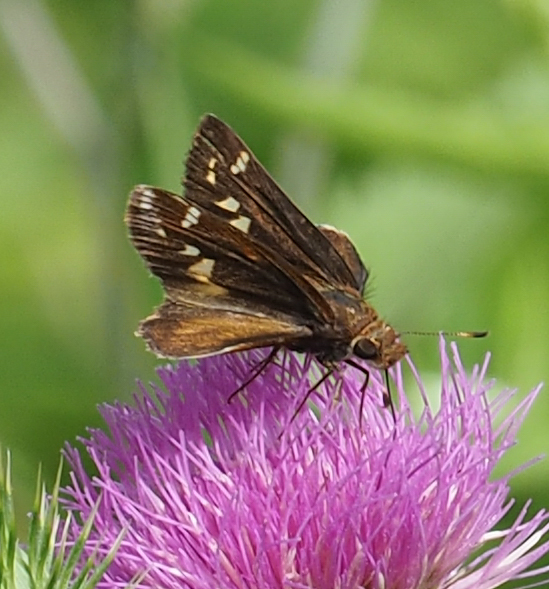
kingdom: Animalia
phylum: Arthropoda
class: Insecta
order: Lepidoptera
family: Hesperiidae
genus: Lon
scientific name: Lon zabulon
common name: Zabulon skipper
